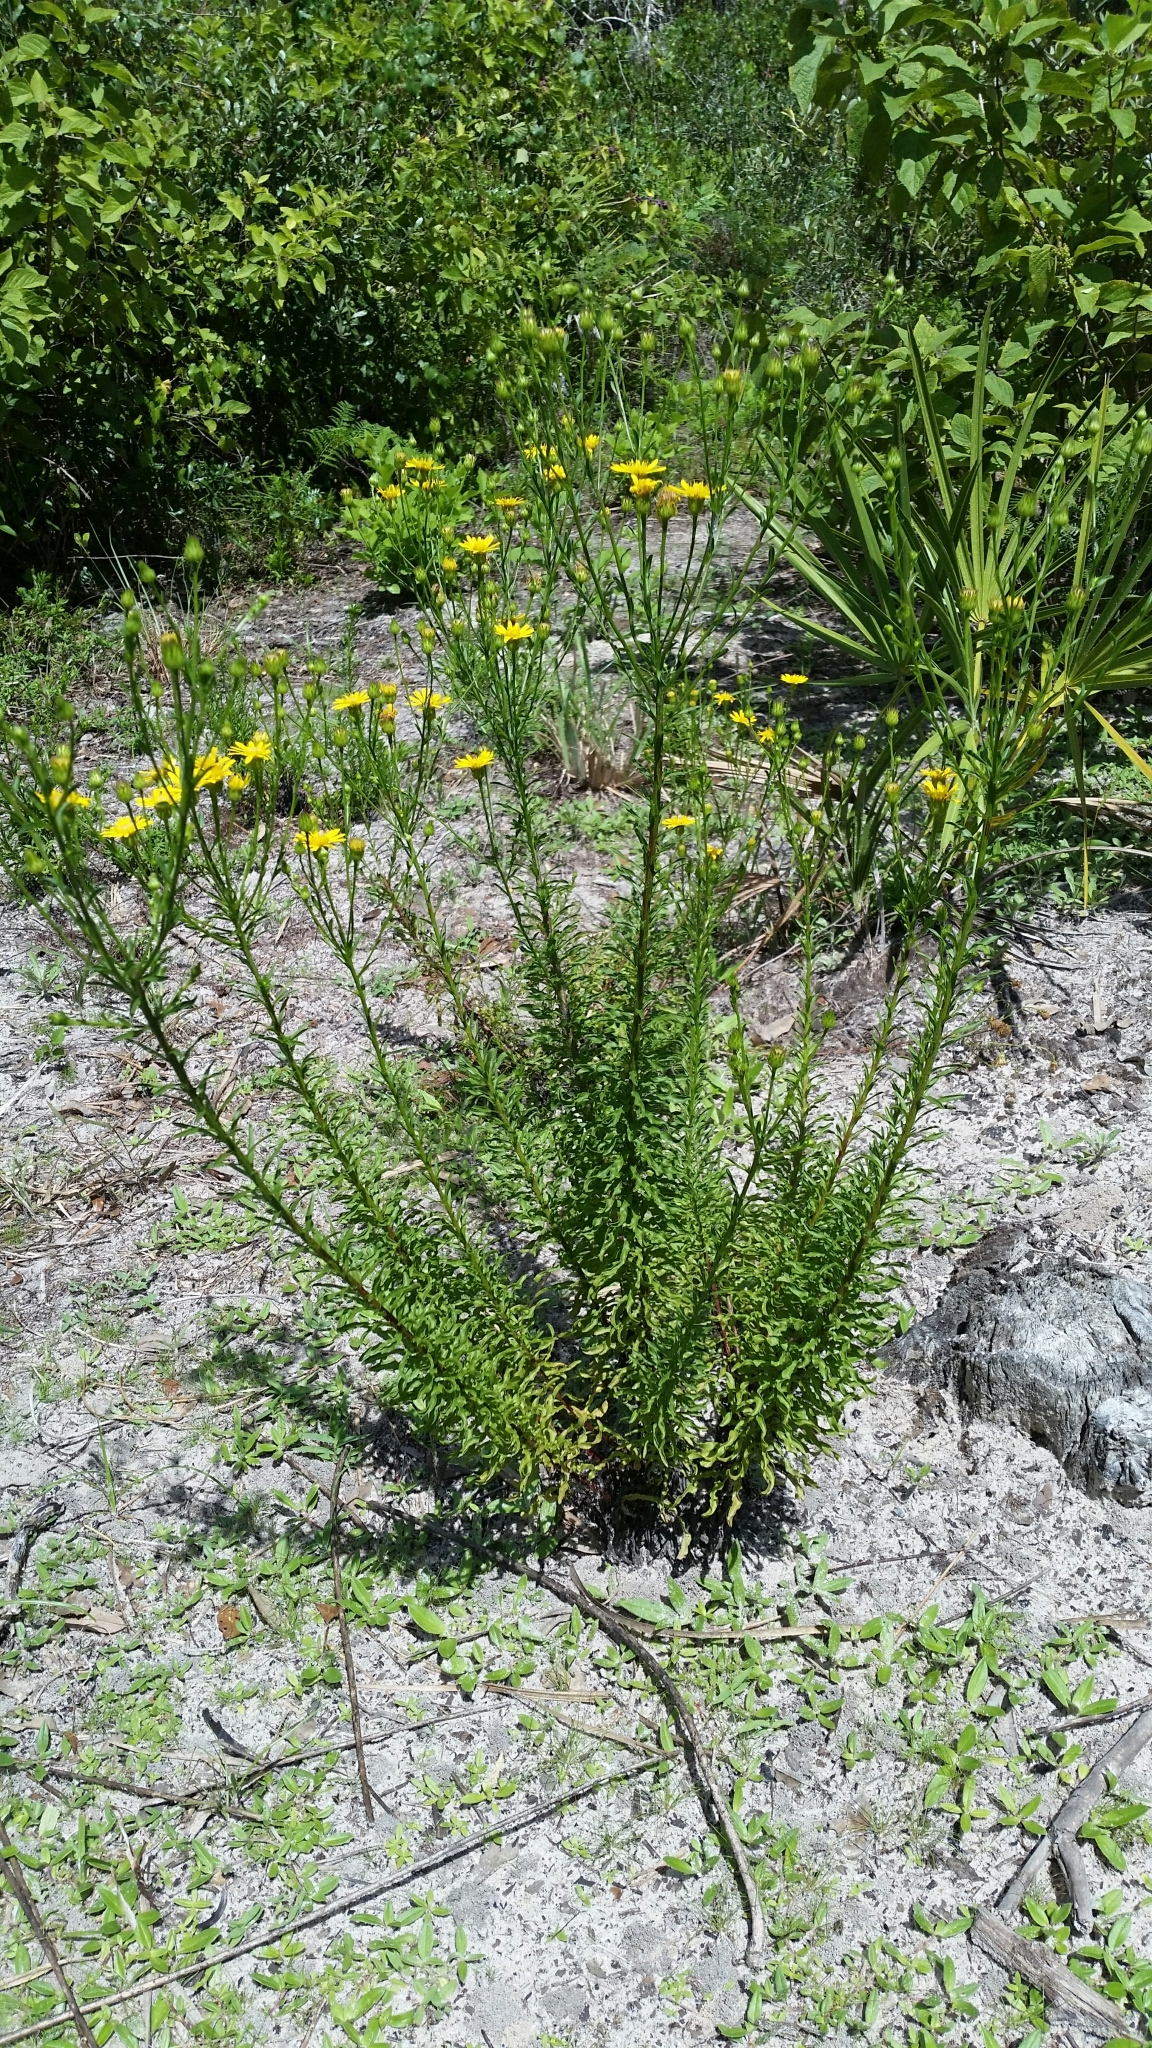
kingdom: Plantae
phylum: Tracheophyta
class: Magnoliopsida
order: Asterales
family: Asteraceae
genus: Chrysopsis
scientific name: Chrysopsis linearifolia
